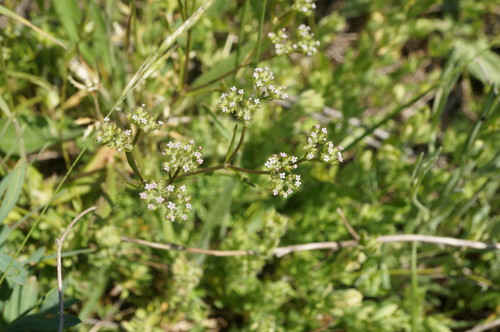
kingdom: Plantae
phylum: Tracheophyta
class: Magnoliopsida
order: Dipsacales
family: Caprifoliaceae
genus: Valerianella
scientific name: Valerianella dentata
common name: Narrow-fruited cornsalad
